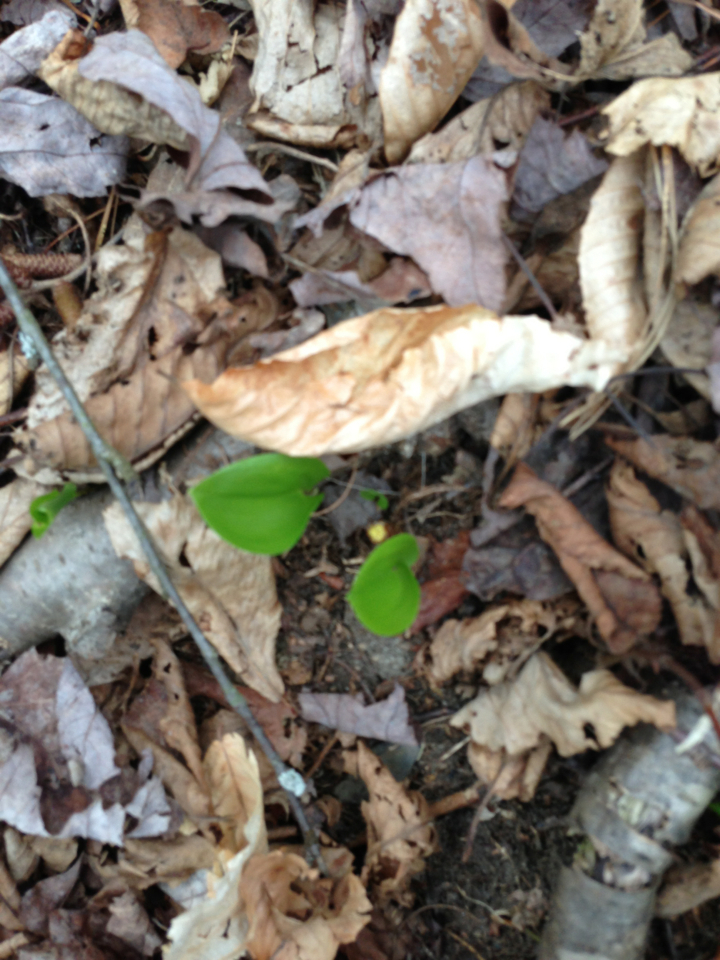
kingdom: Plantae
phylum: Tracheophyta
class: Liliopsida
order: Asparagales
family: Asparagaceae
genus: Maianthemum
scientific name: Maianthemum canadense
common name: False lily-of-the-valley
